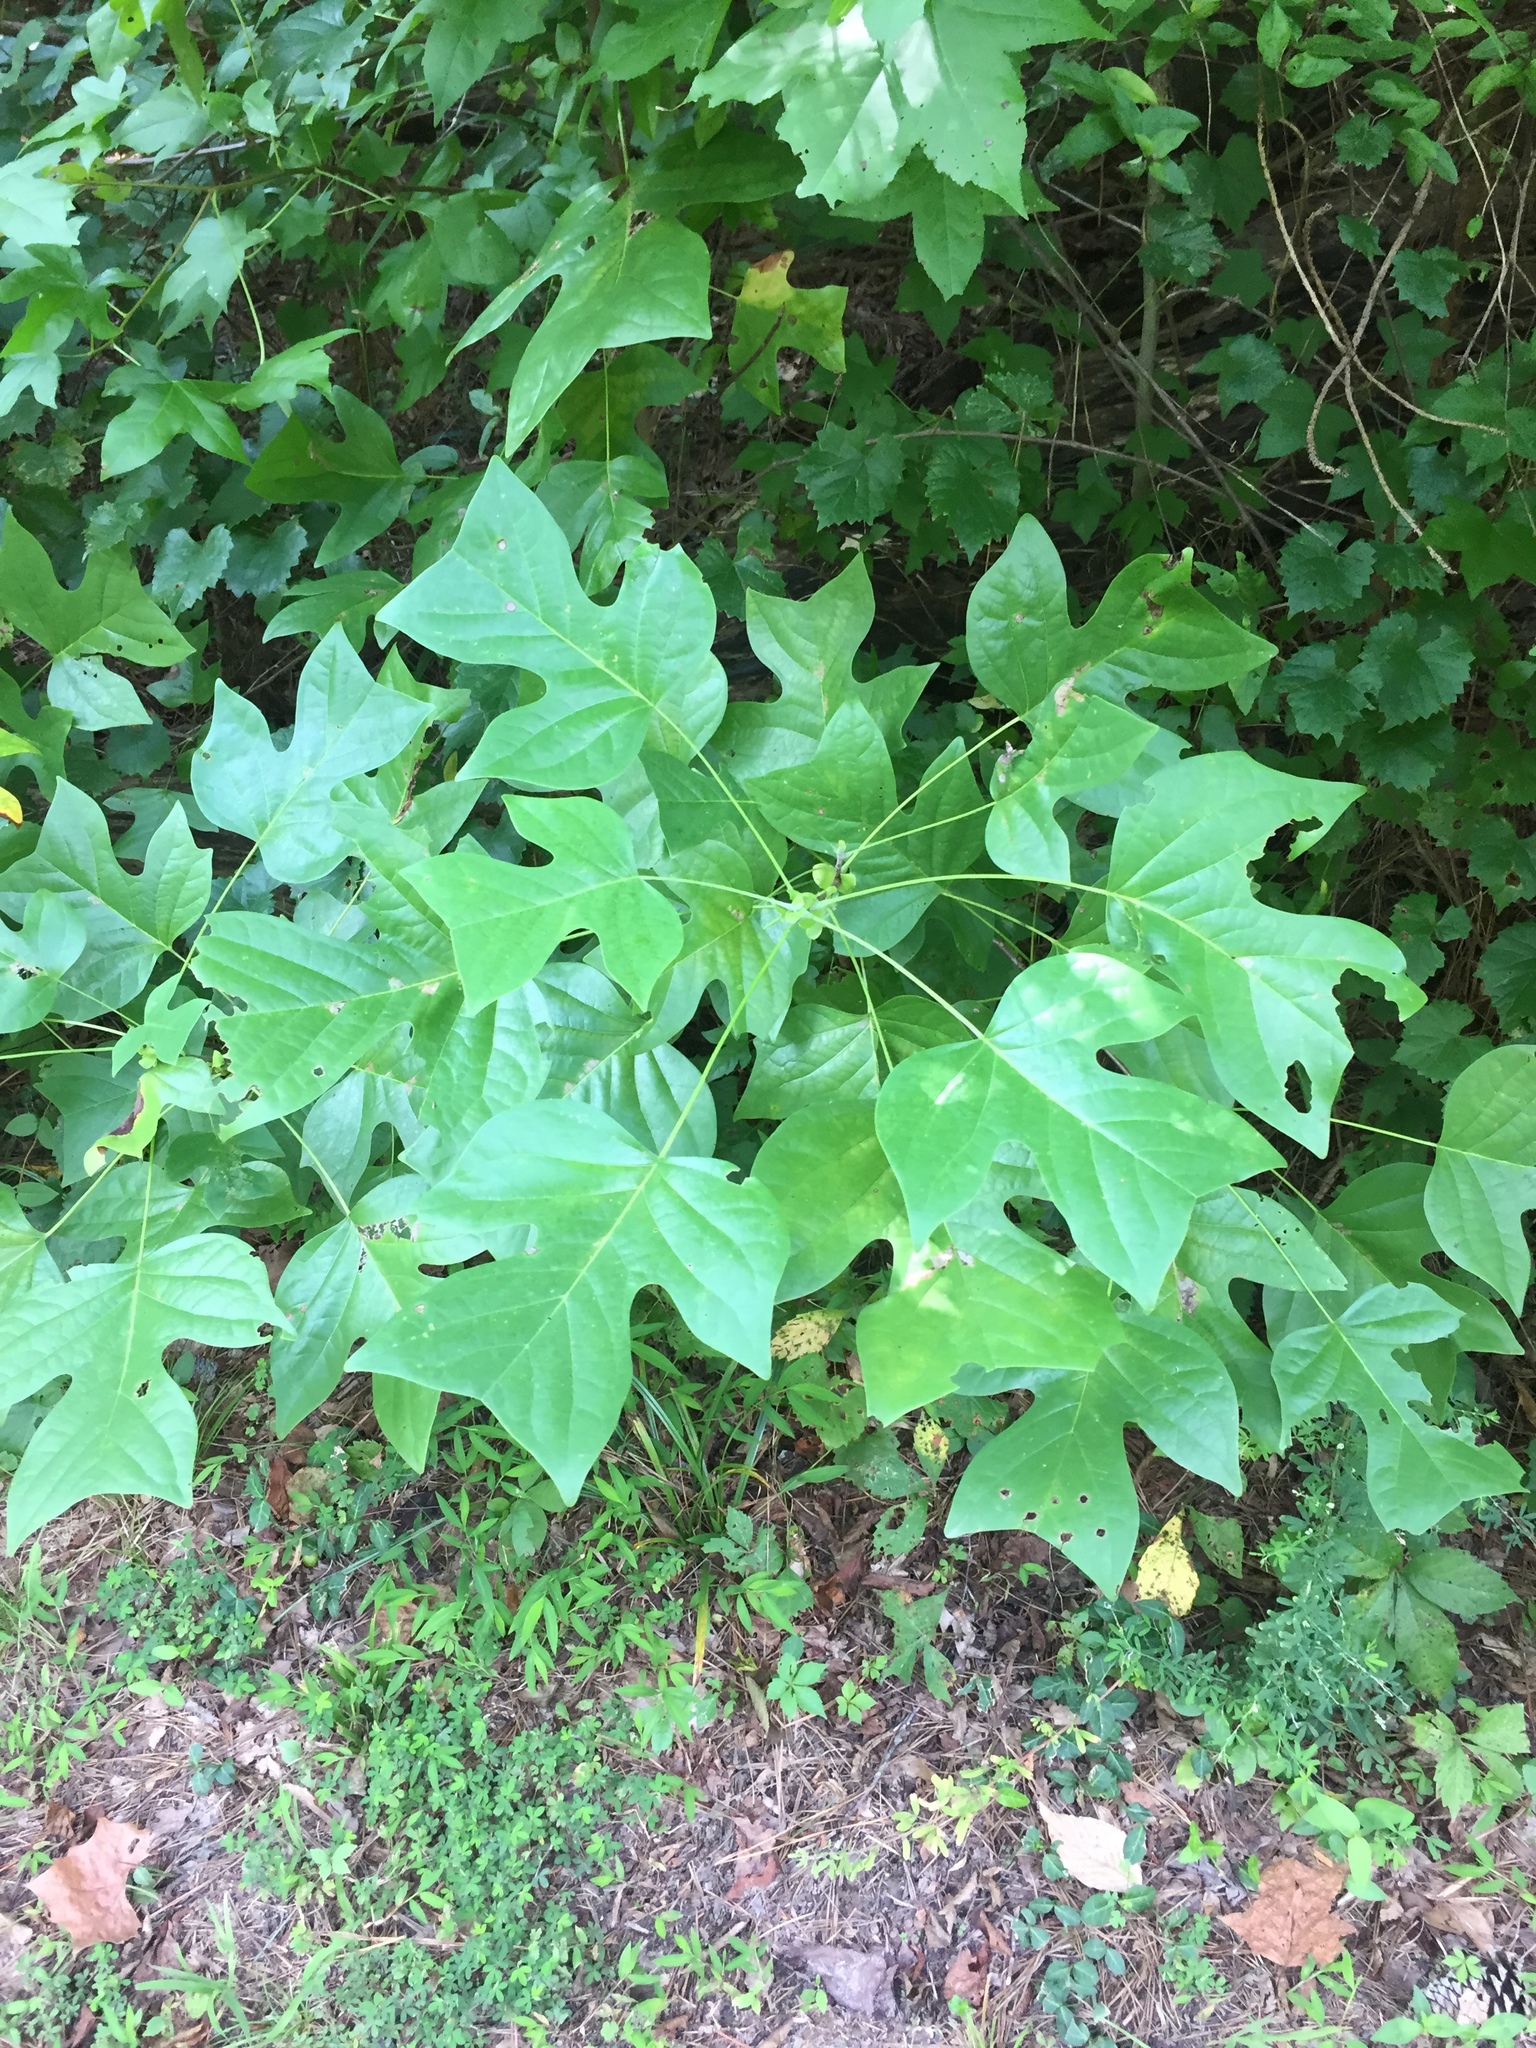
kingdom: Plantae
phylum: Tracheophyta
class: Magnoliopsida
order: Magnoliales
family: Magnoliaceae
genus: Liriodendron
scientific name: Liriodendron tulipifera
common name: Tulip tree
